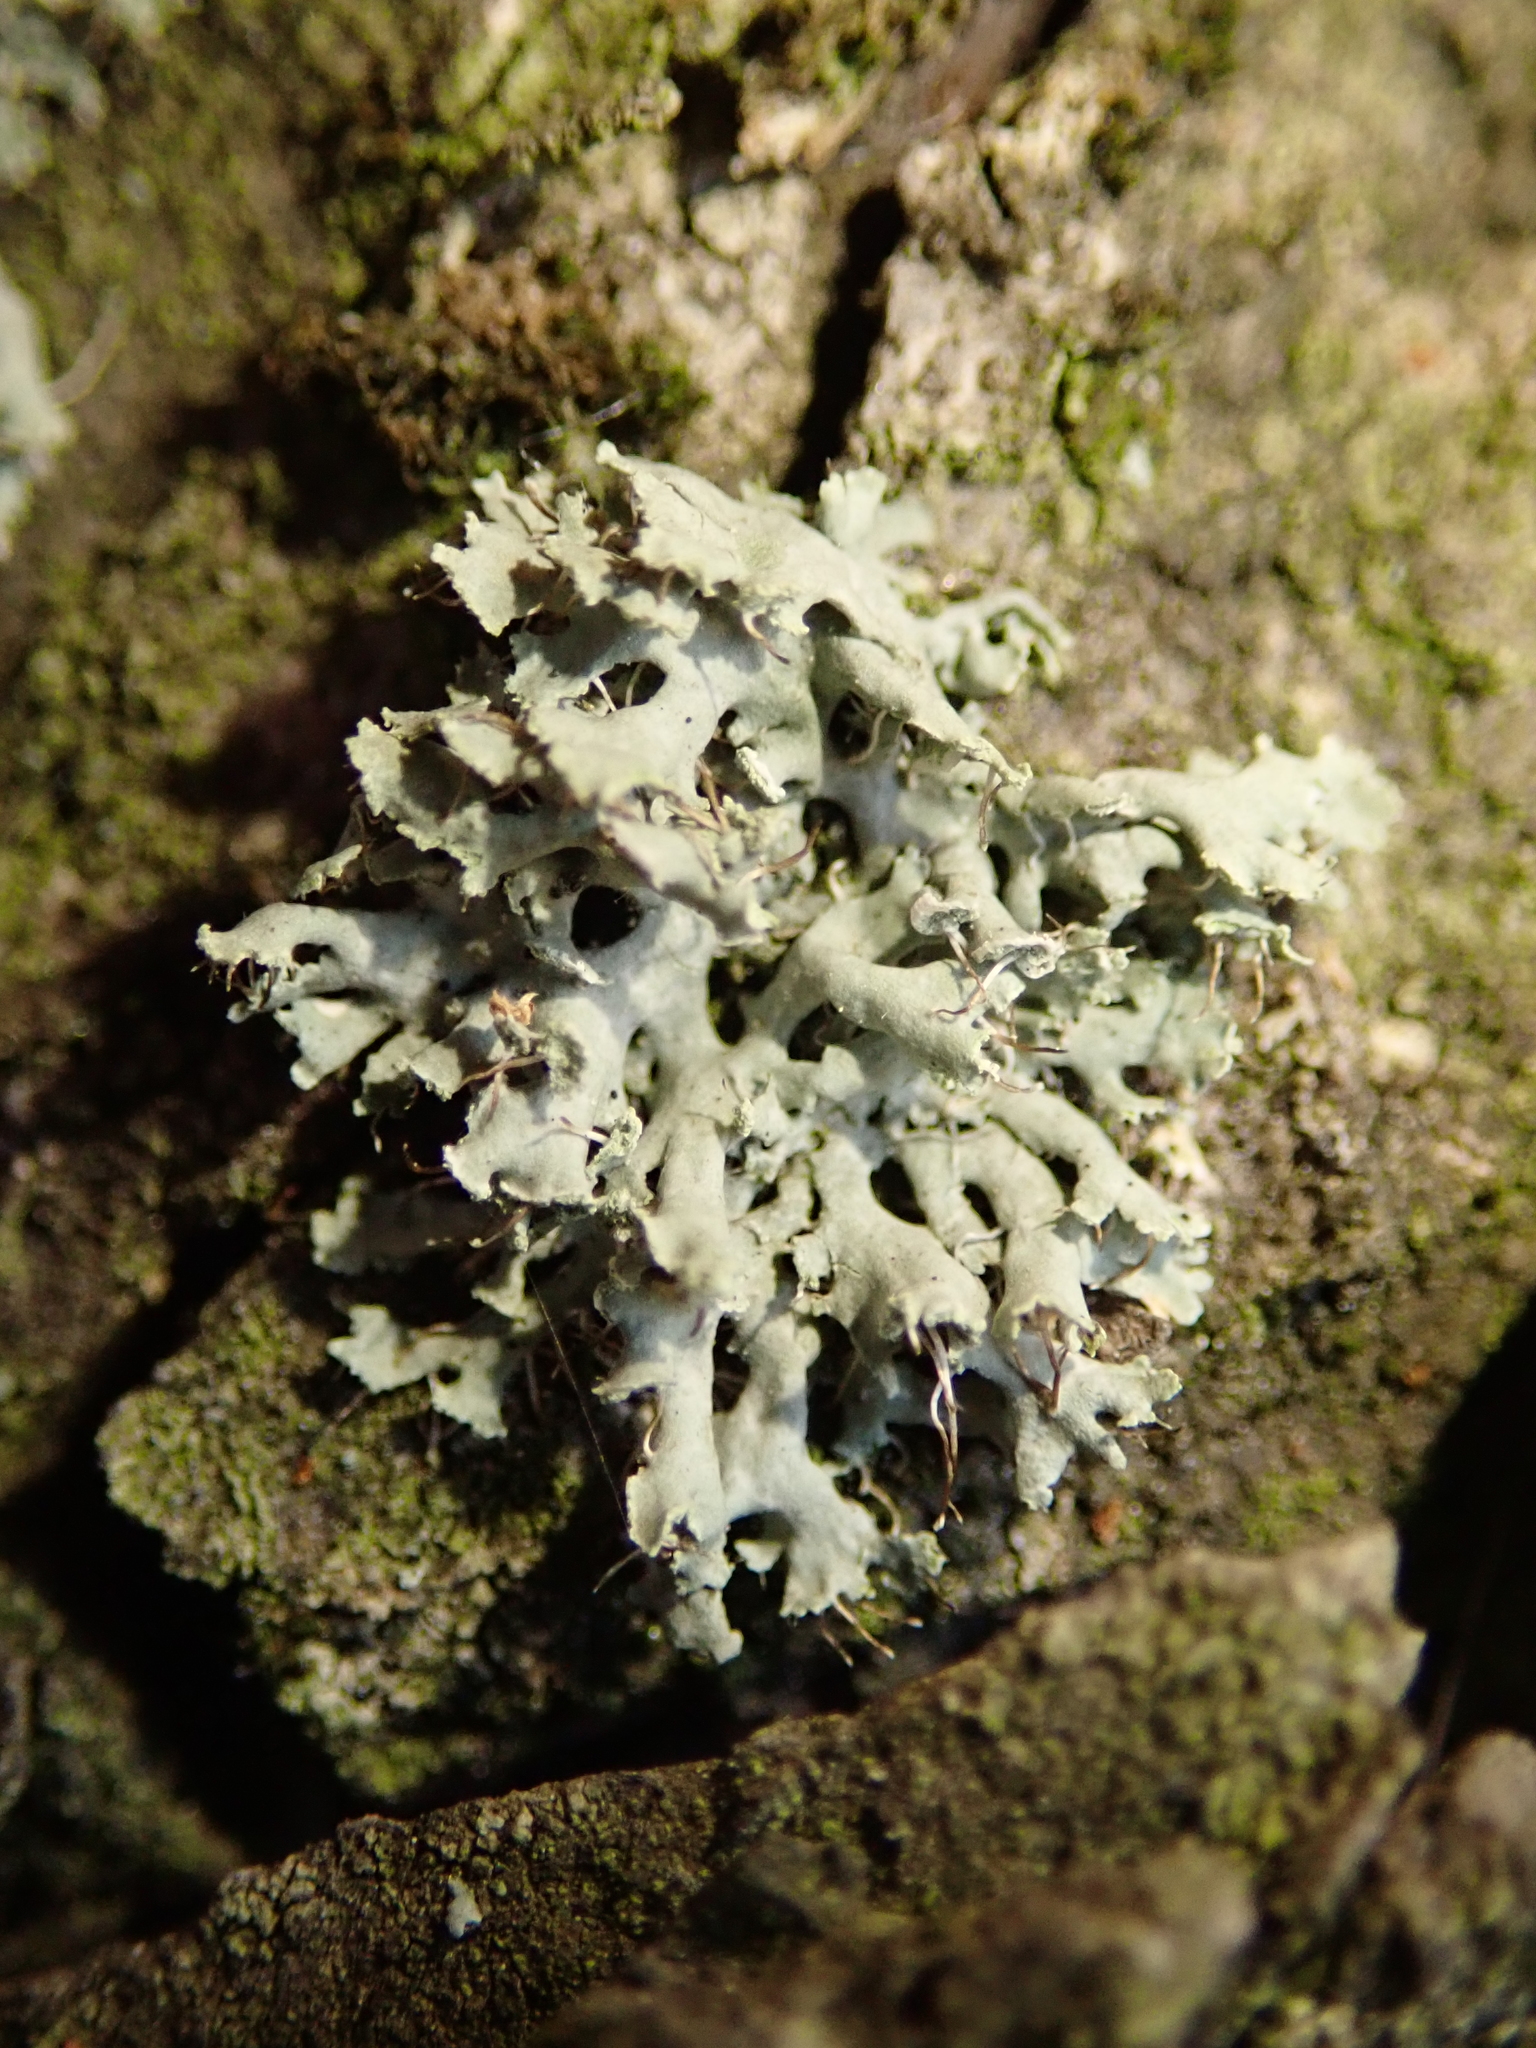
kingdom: Fungi
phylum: Ascomycota
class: Lecanoromycetes
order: Caliciales
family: Physciaceae
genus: Physcia
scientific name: Physcia tenella
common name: Fringed rosette lichen
